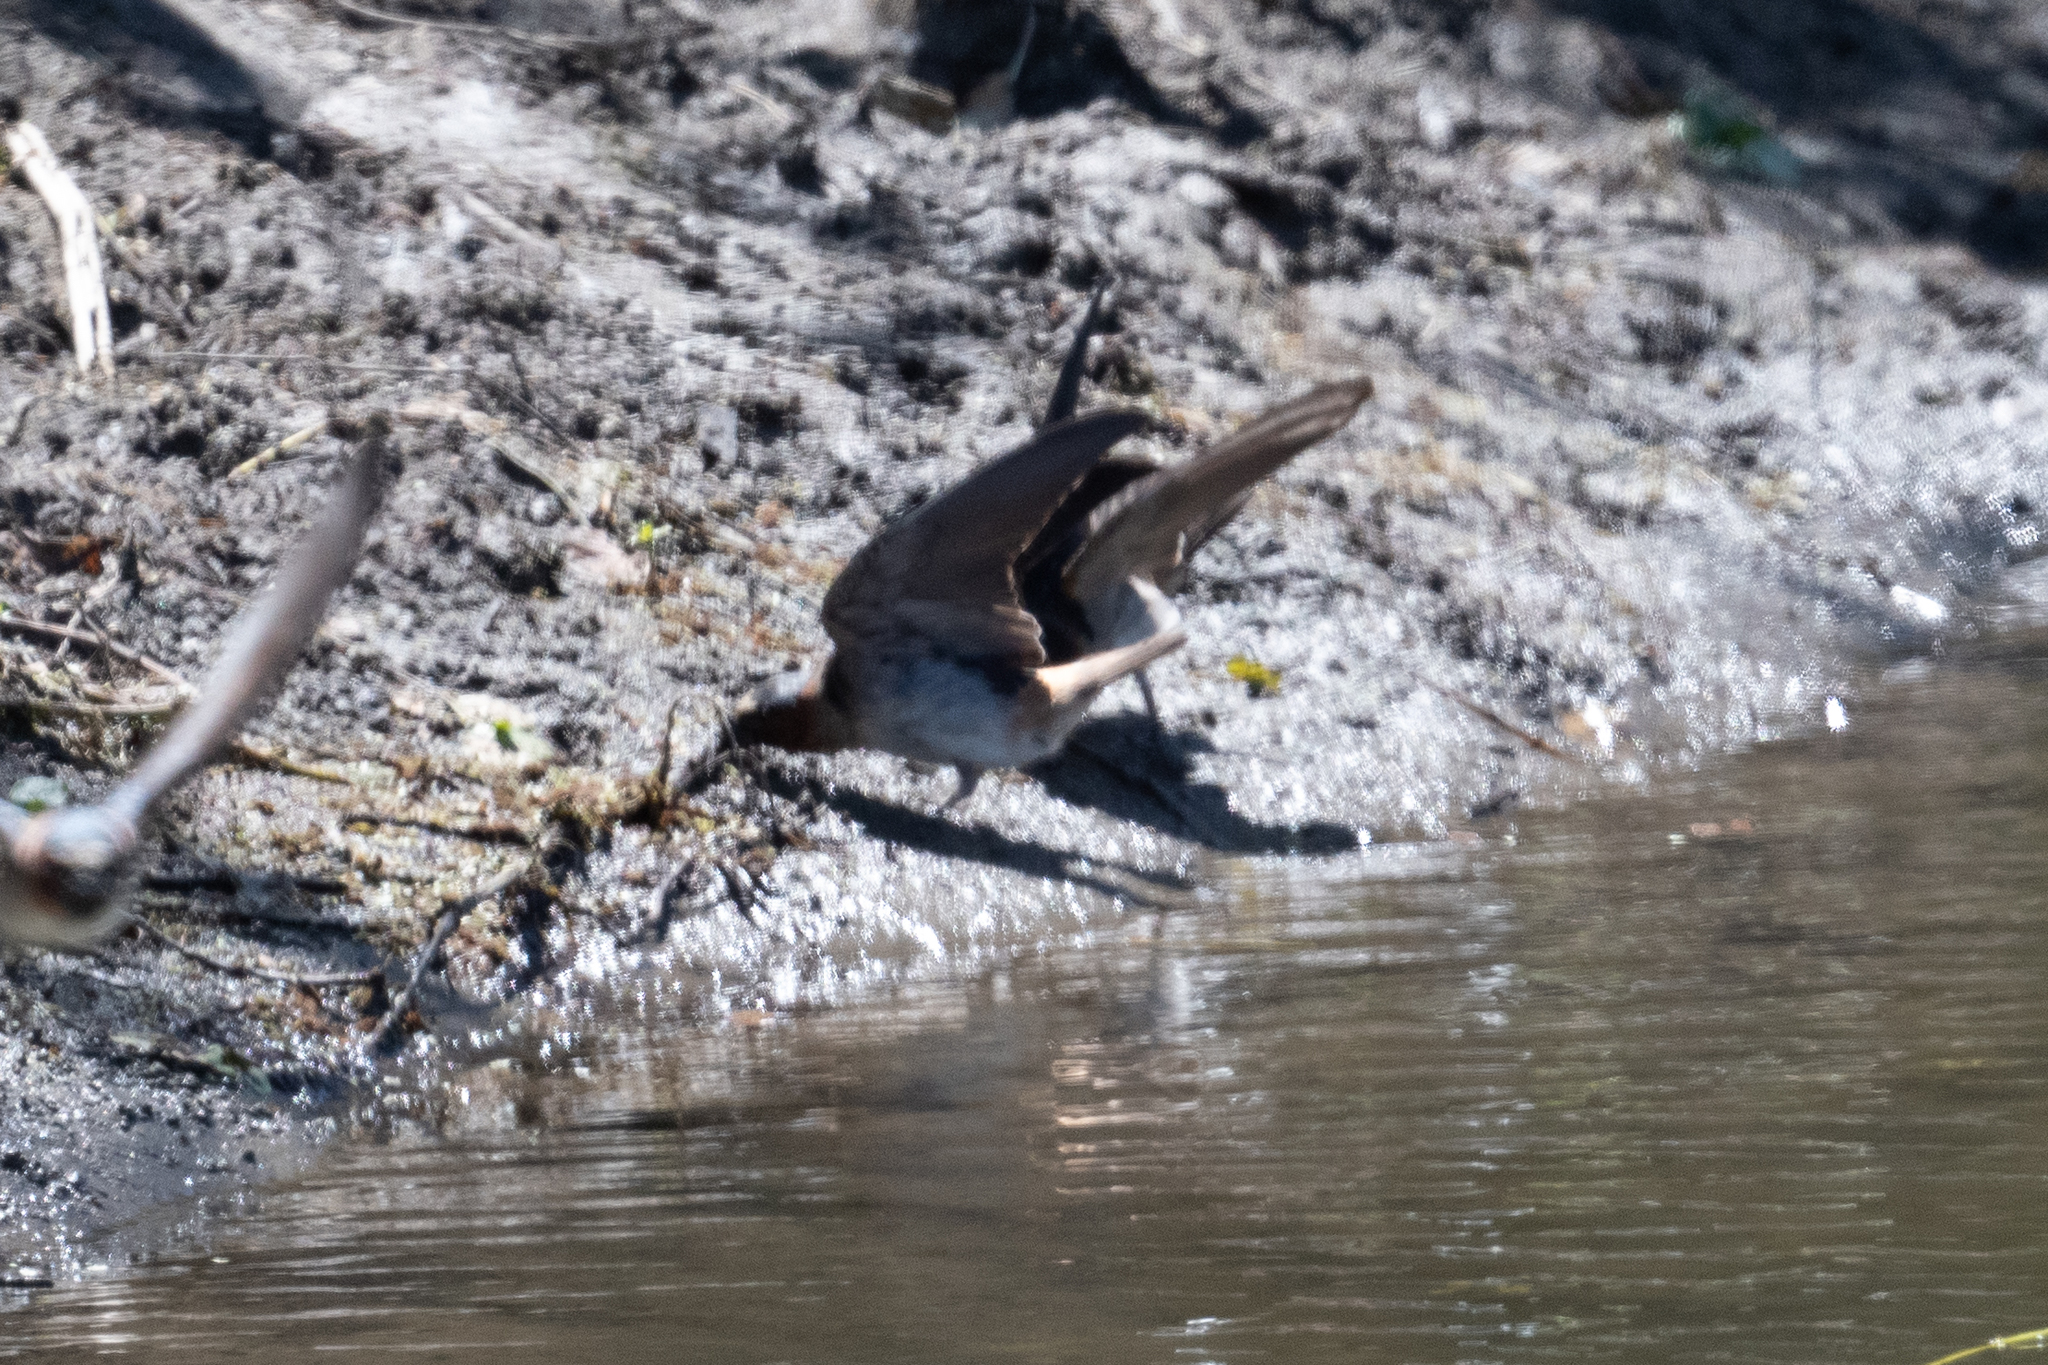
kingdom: Animalia
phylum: Chordata
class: Aves
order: Passeriformes
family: Hirundinidae
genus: Petrochelidon
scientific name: Petrochelidon pyrrhonota
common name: American cliff swallow
